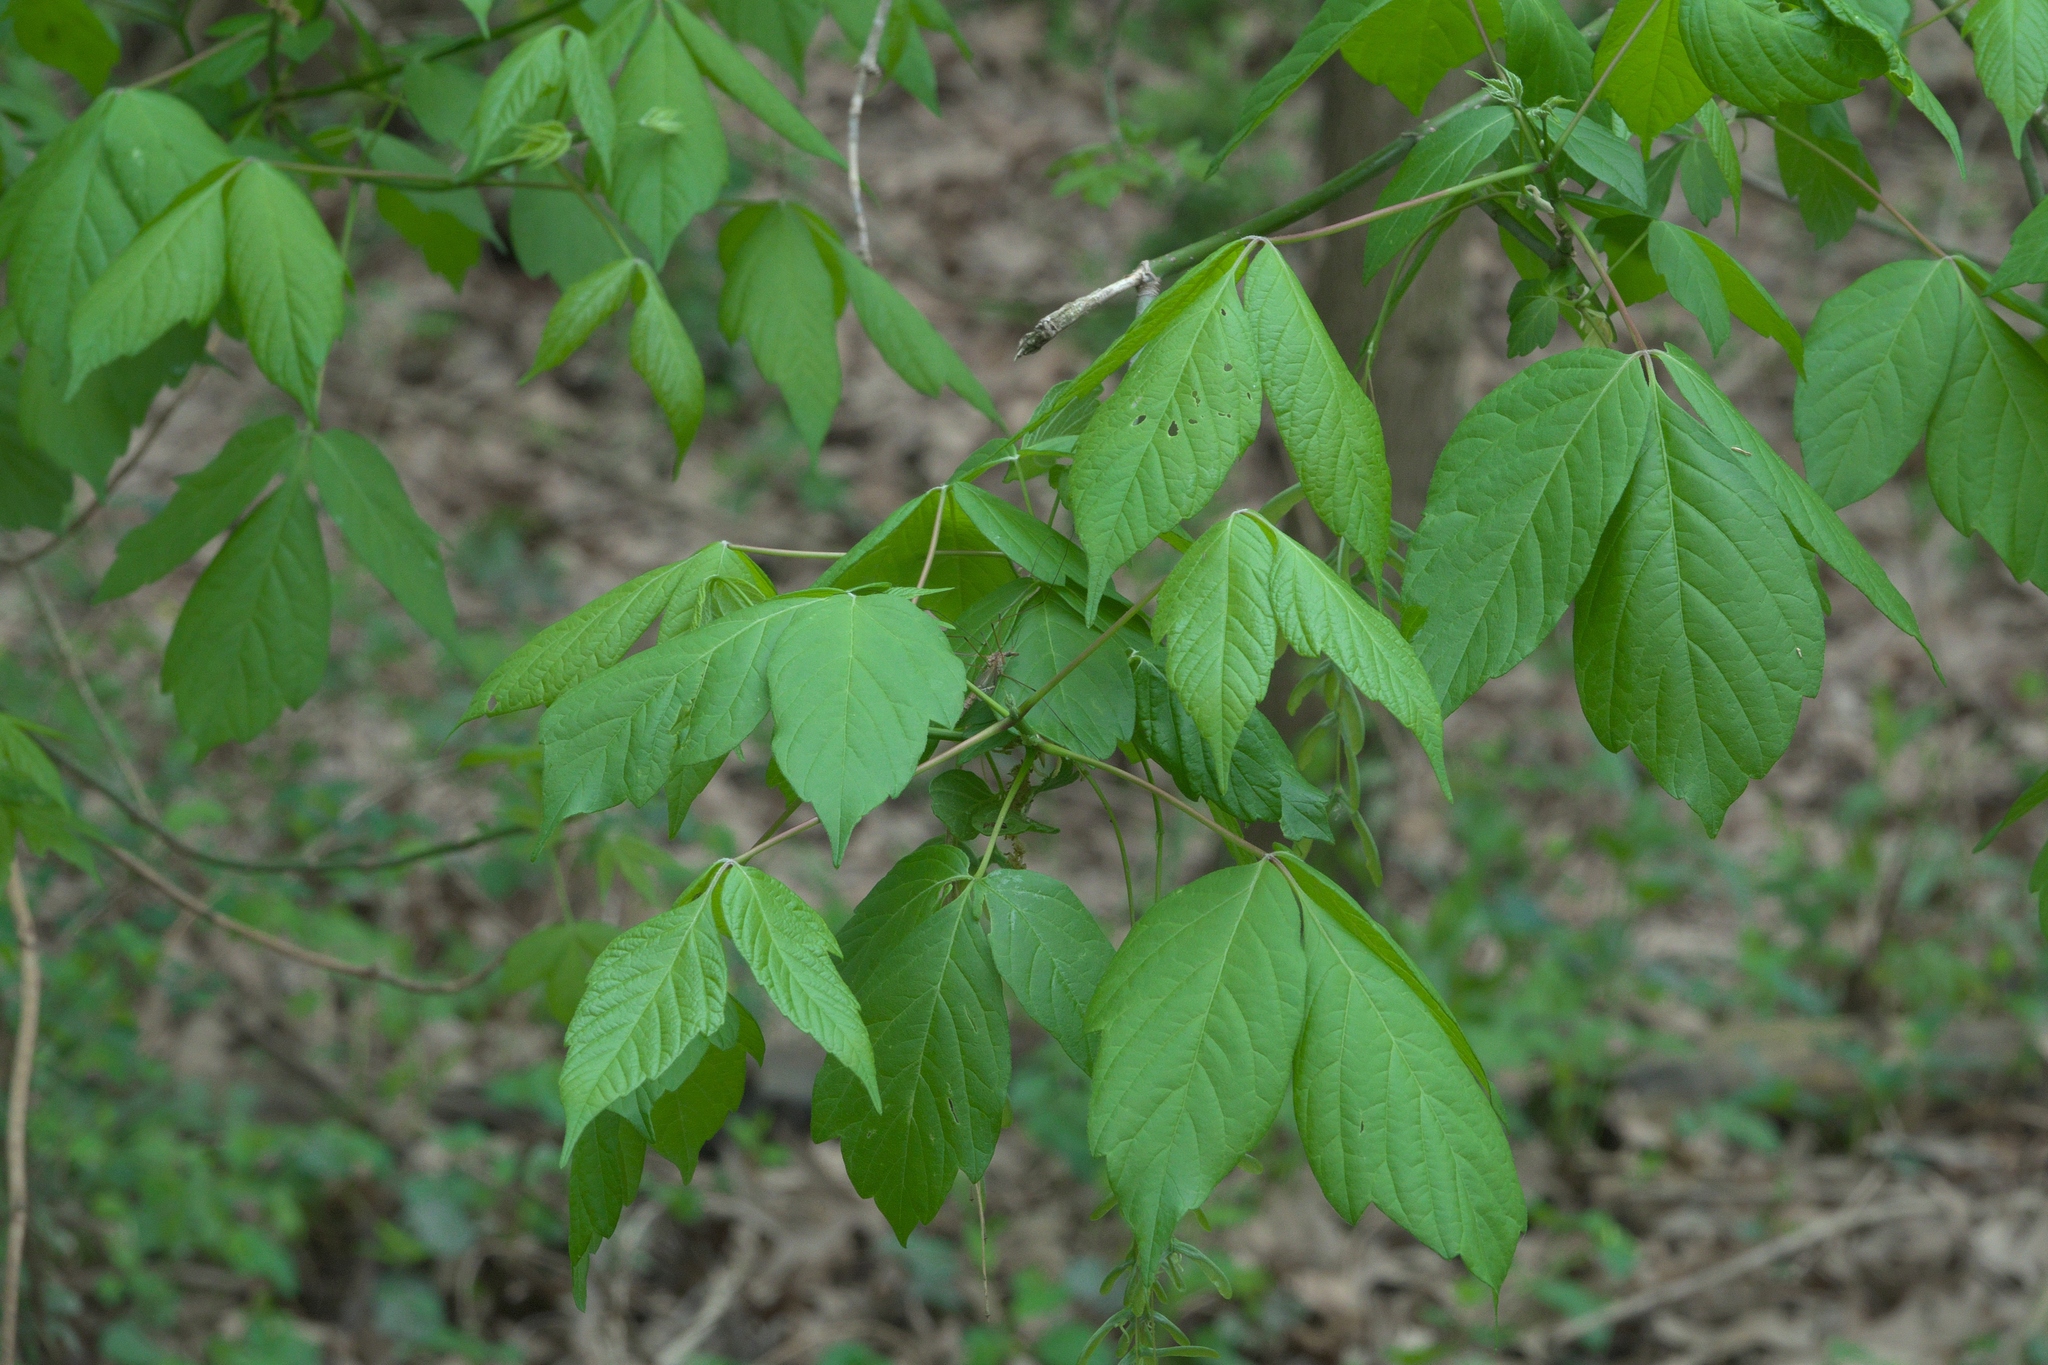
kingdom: Plantae
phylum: Tracheophyta
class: Magnoliopsida
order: Sapindales
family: Sapindaceae
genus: Acer
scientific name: Acer negundo
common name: Ashleaf maple
